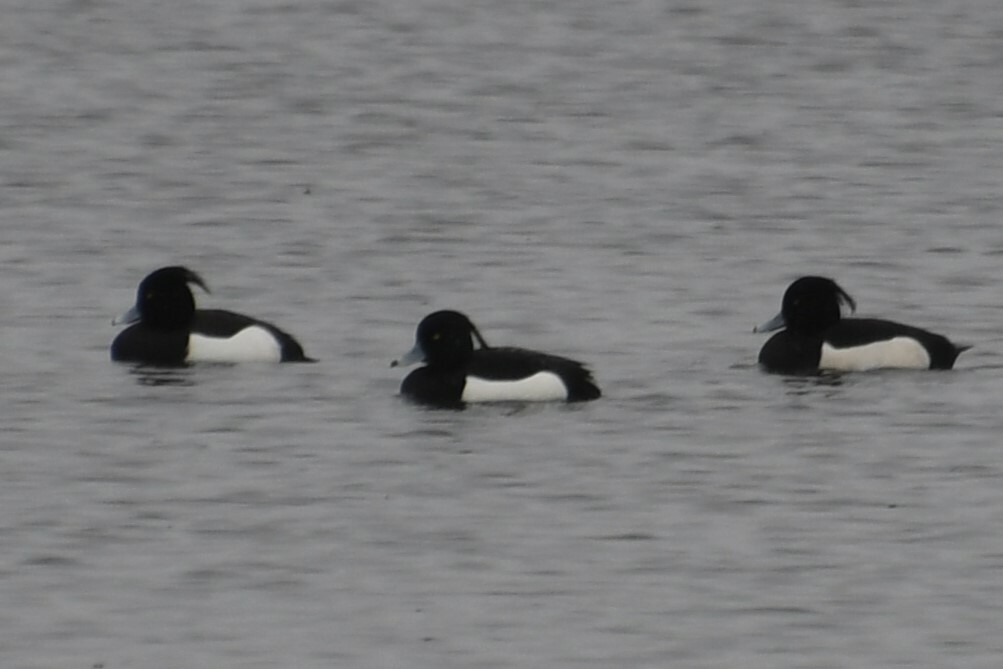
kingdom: Animalia
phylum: Chordata
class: Aves
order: Anseriformes
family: Anatidae
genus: Aythya
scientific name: Aythya fuligula
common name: Tufted duck
